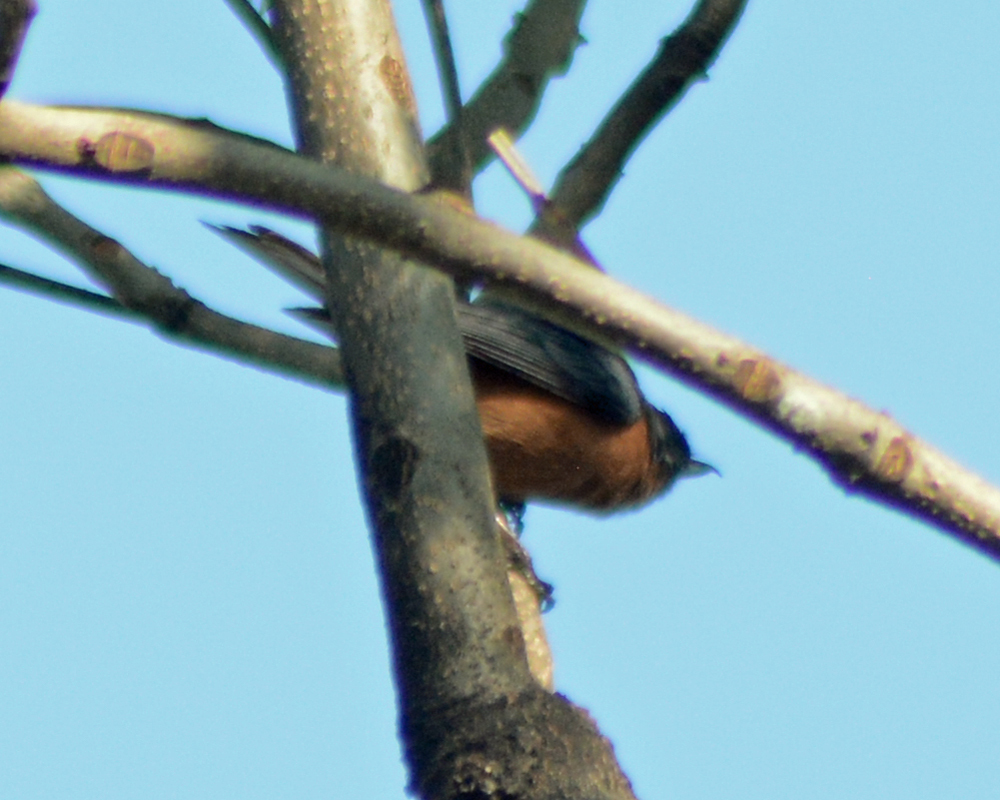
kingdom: Animalia
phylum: Chordata
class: Aves
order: Passeriformes
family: Thraupidae
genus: Diglossa
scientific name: Diglossa baritula
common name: Cinnamon-bellied flowerpiercer
